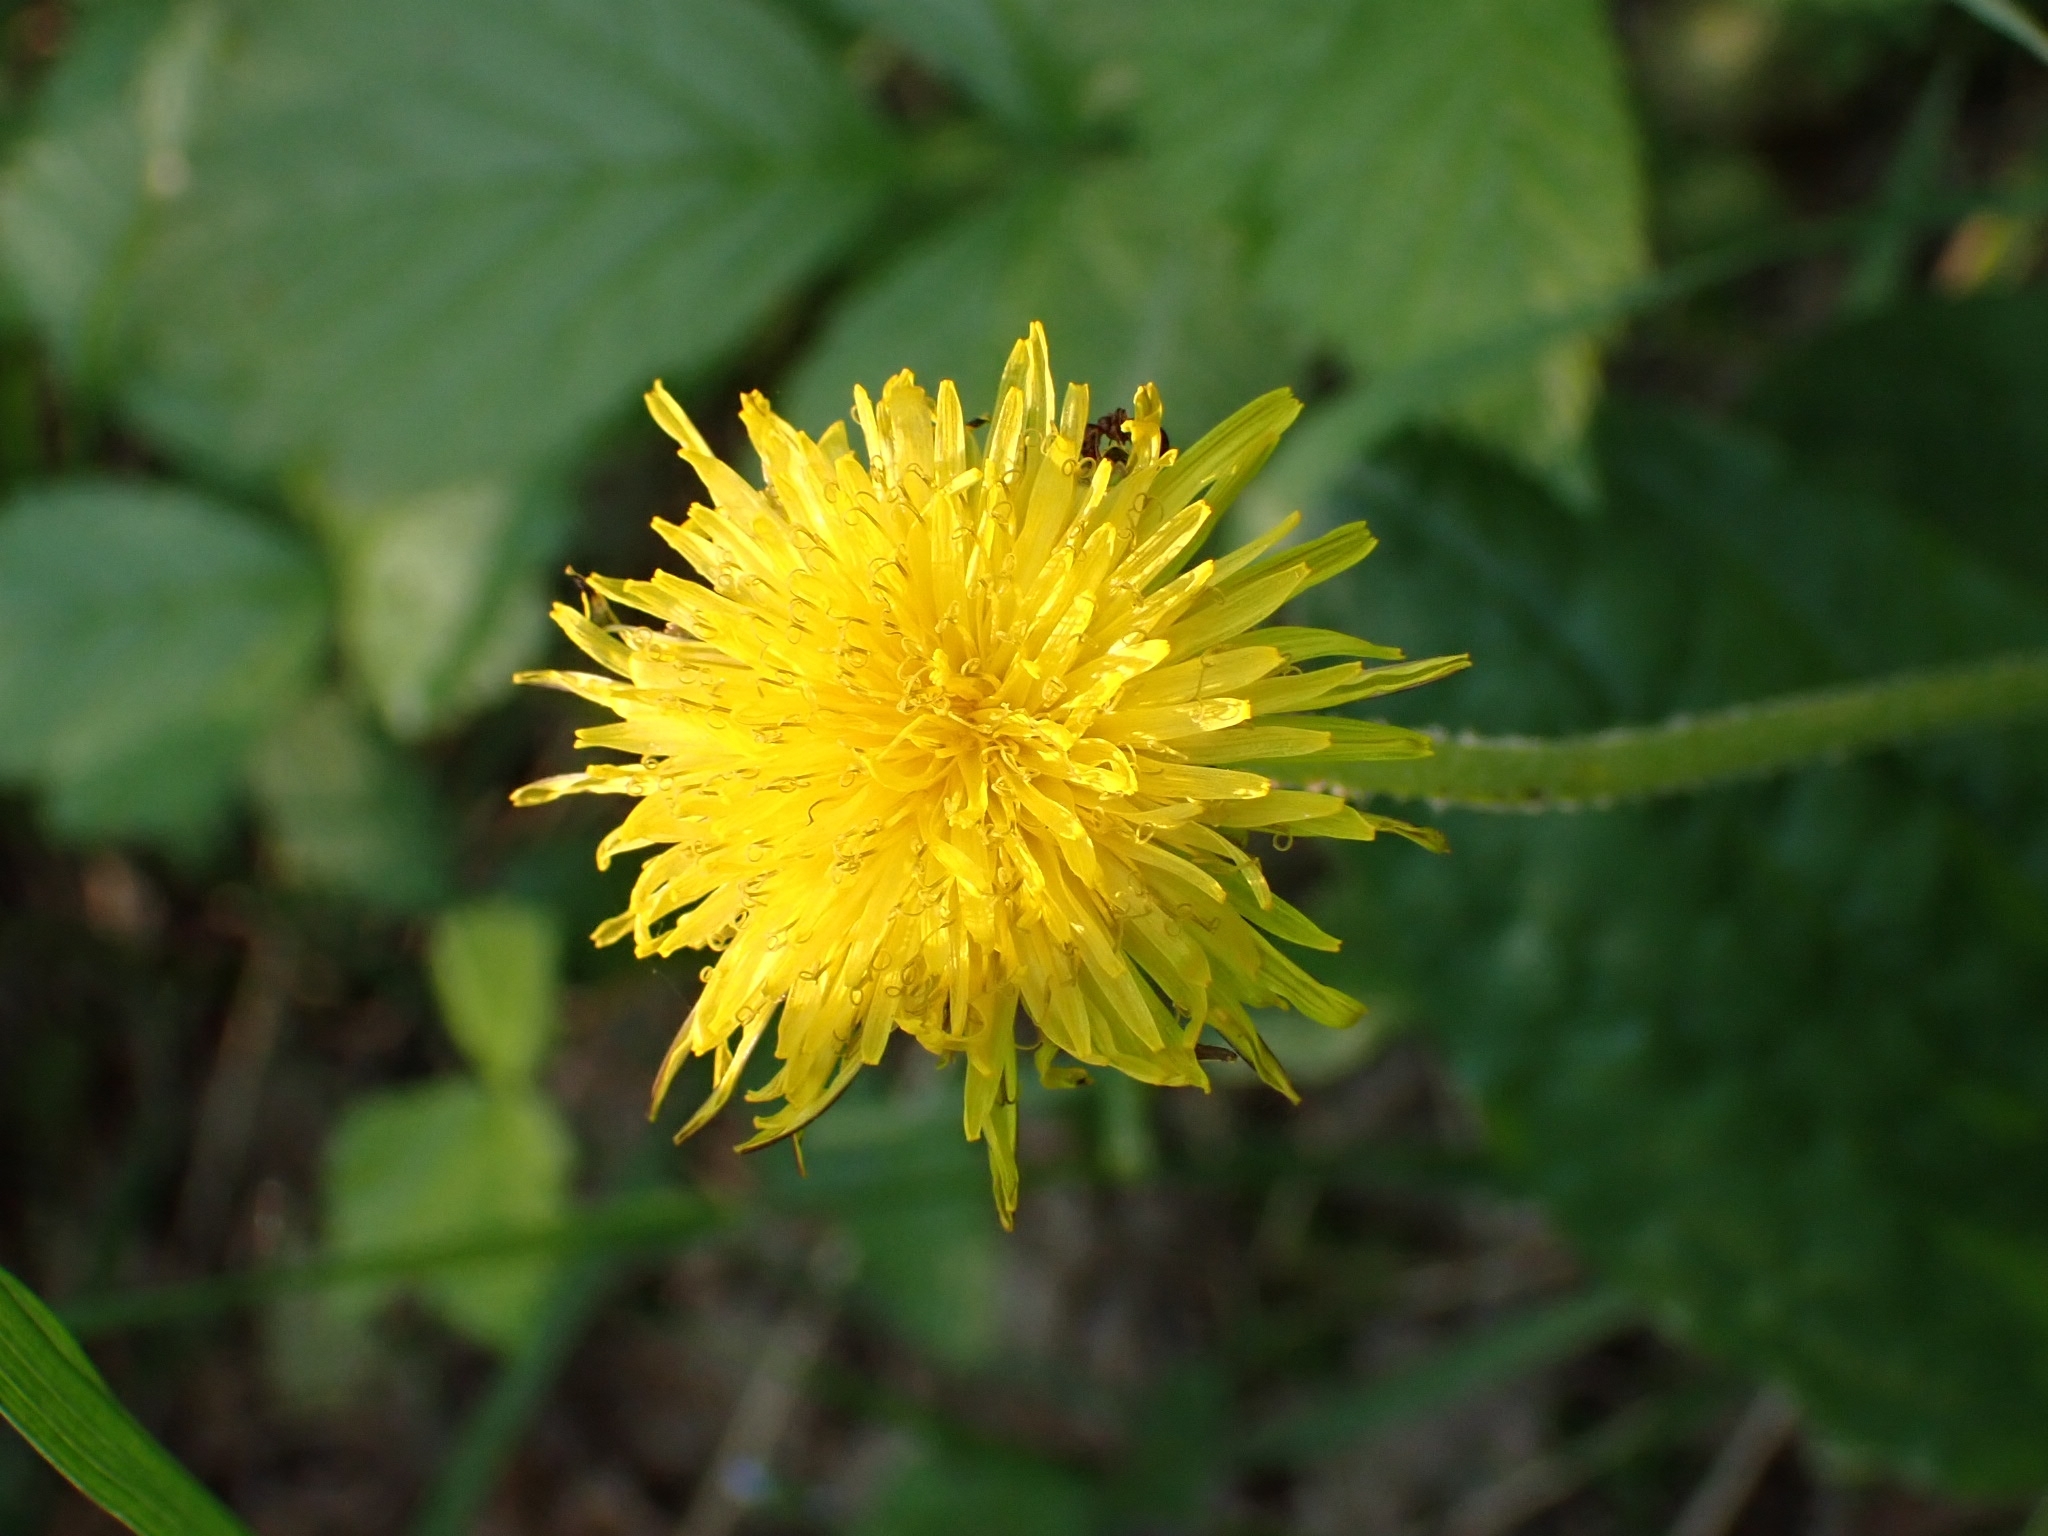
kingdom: Plantae
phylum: Tracheophyta
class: Magnoliopsida
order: Asterales
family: Asteraceae
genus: Taraxacum
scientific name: Taraxacum officinale
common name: Common dandelion
